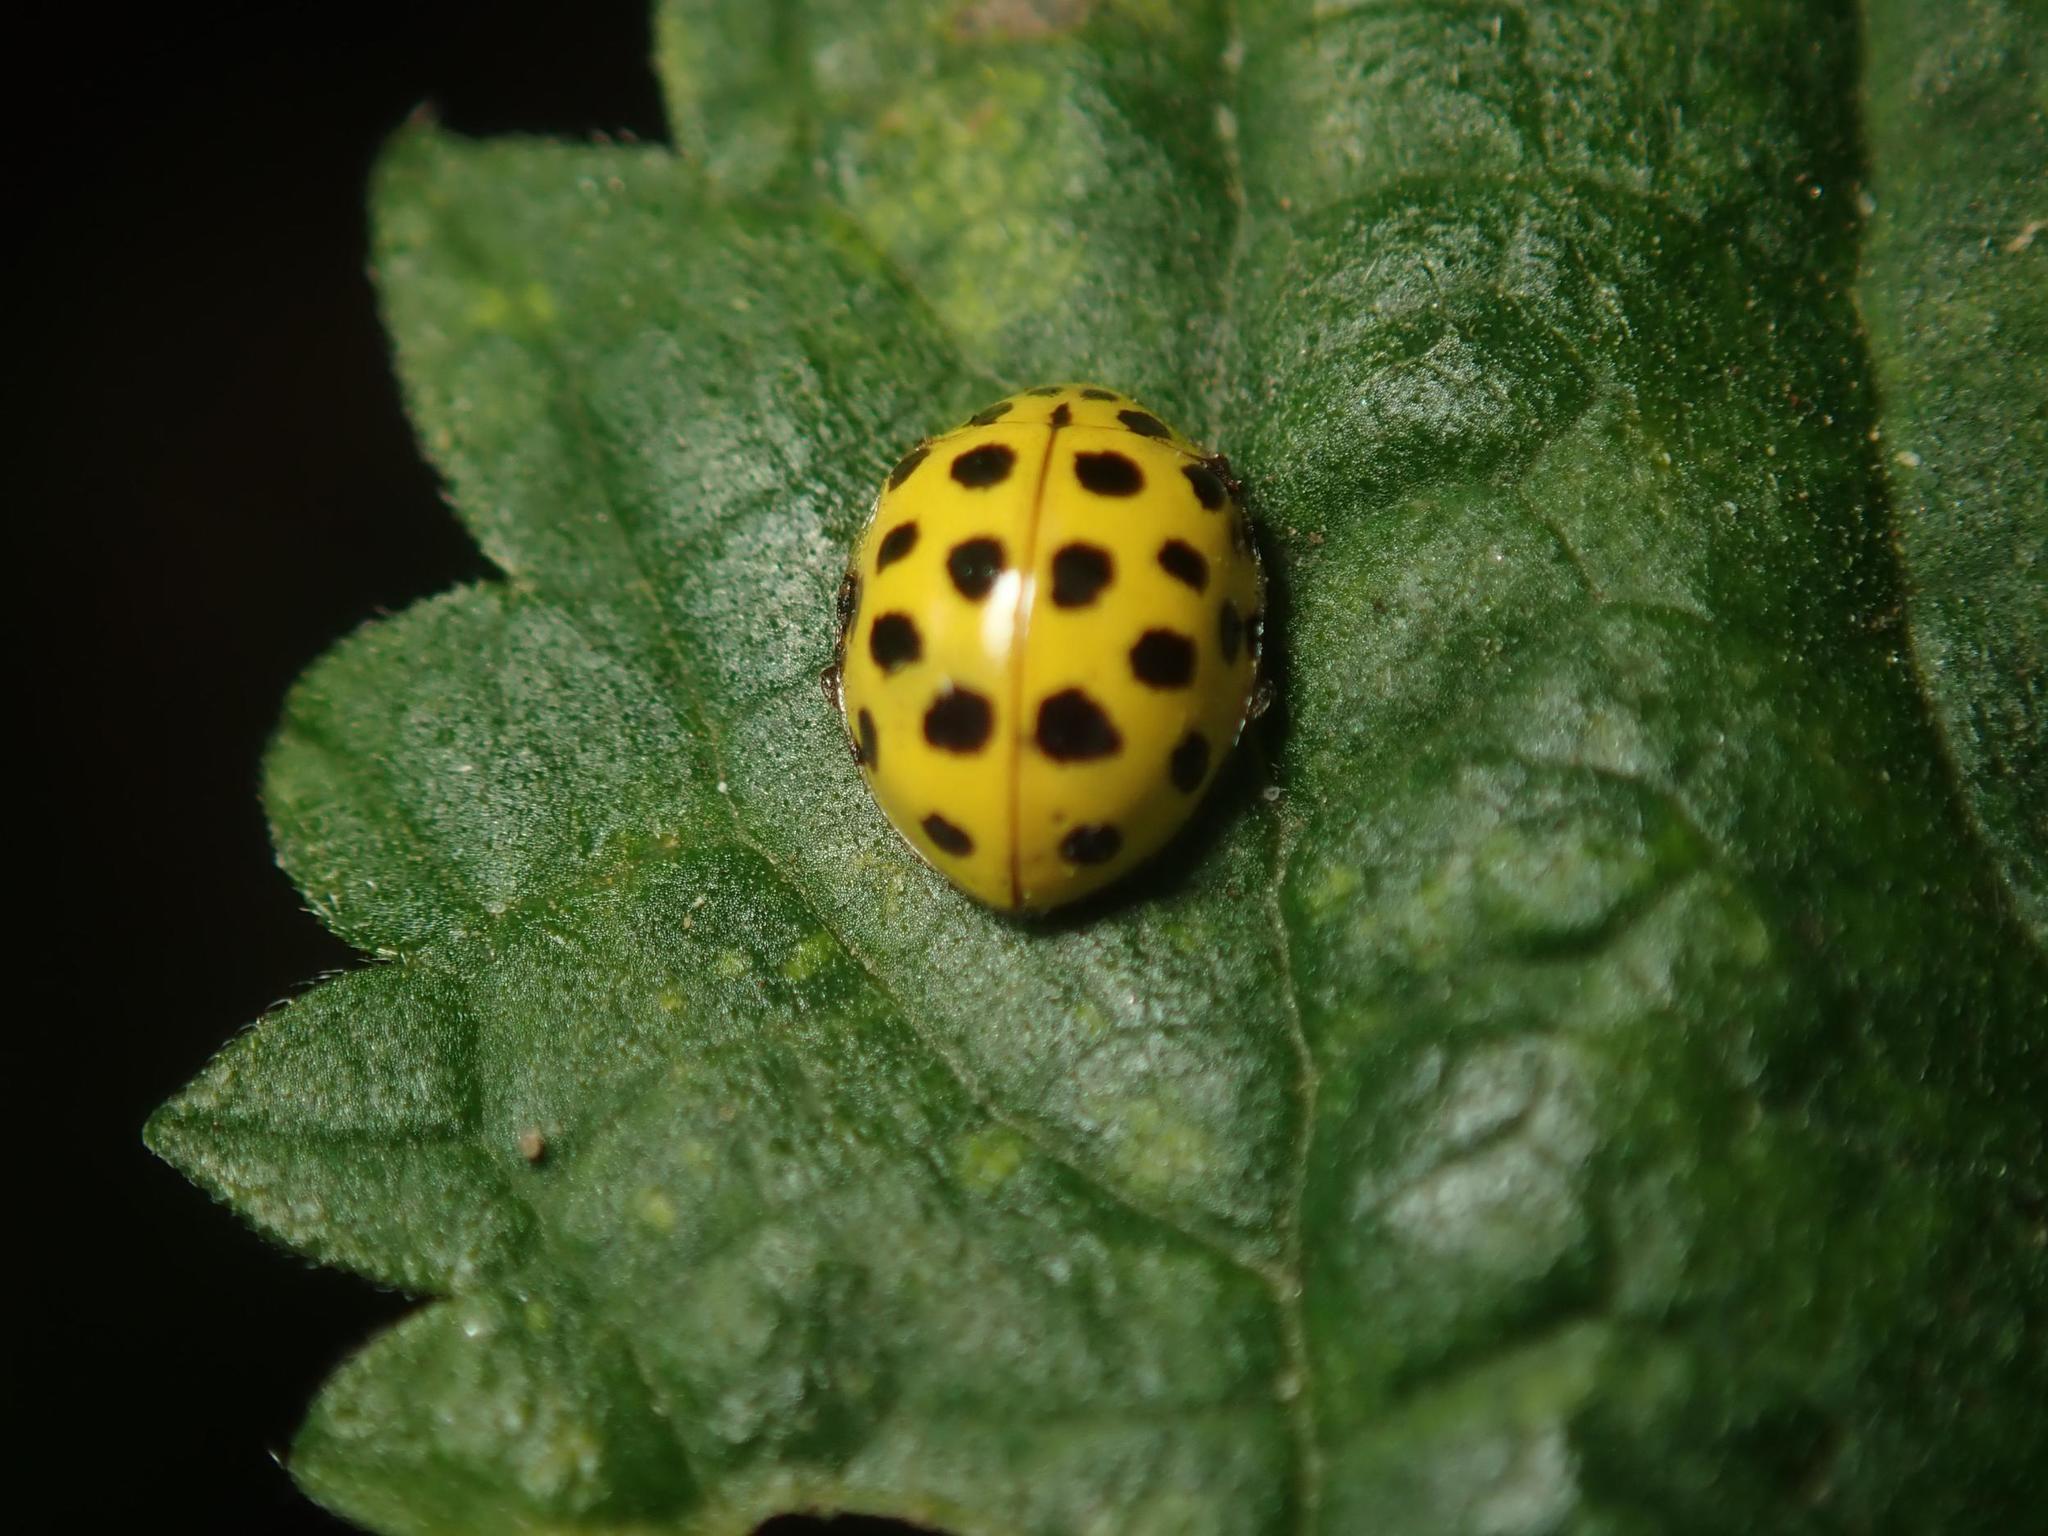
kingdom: Animalia
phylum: Arthropoda
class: Insecta
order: Coleoptera
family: Coccinellidae
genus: Psyllobora
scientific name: Psyllobora vigintiduopunctata
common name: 22-spot ladybird
